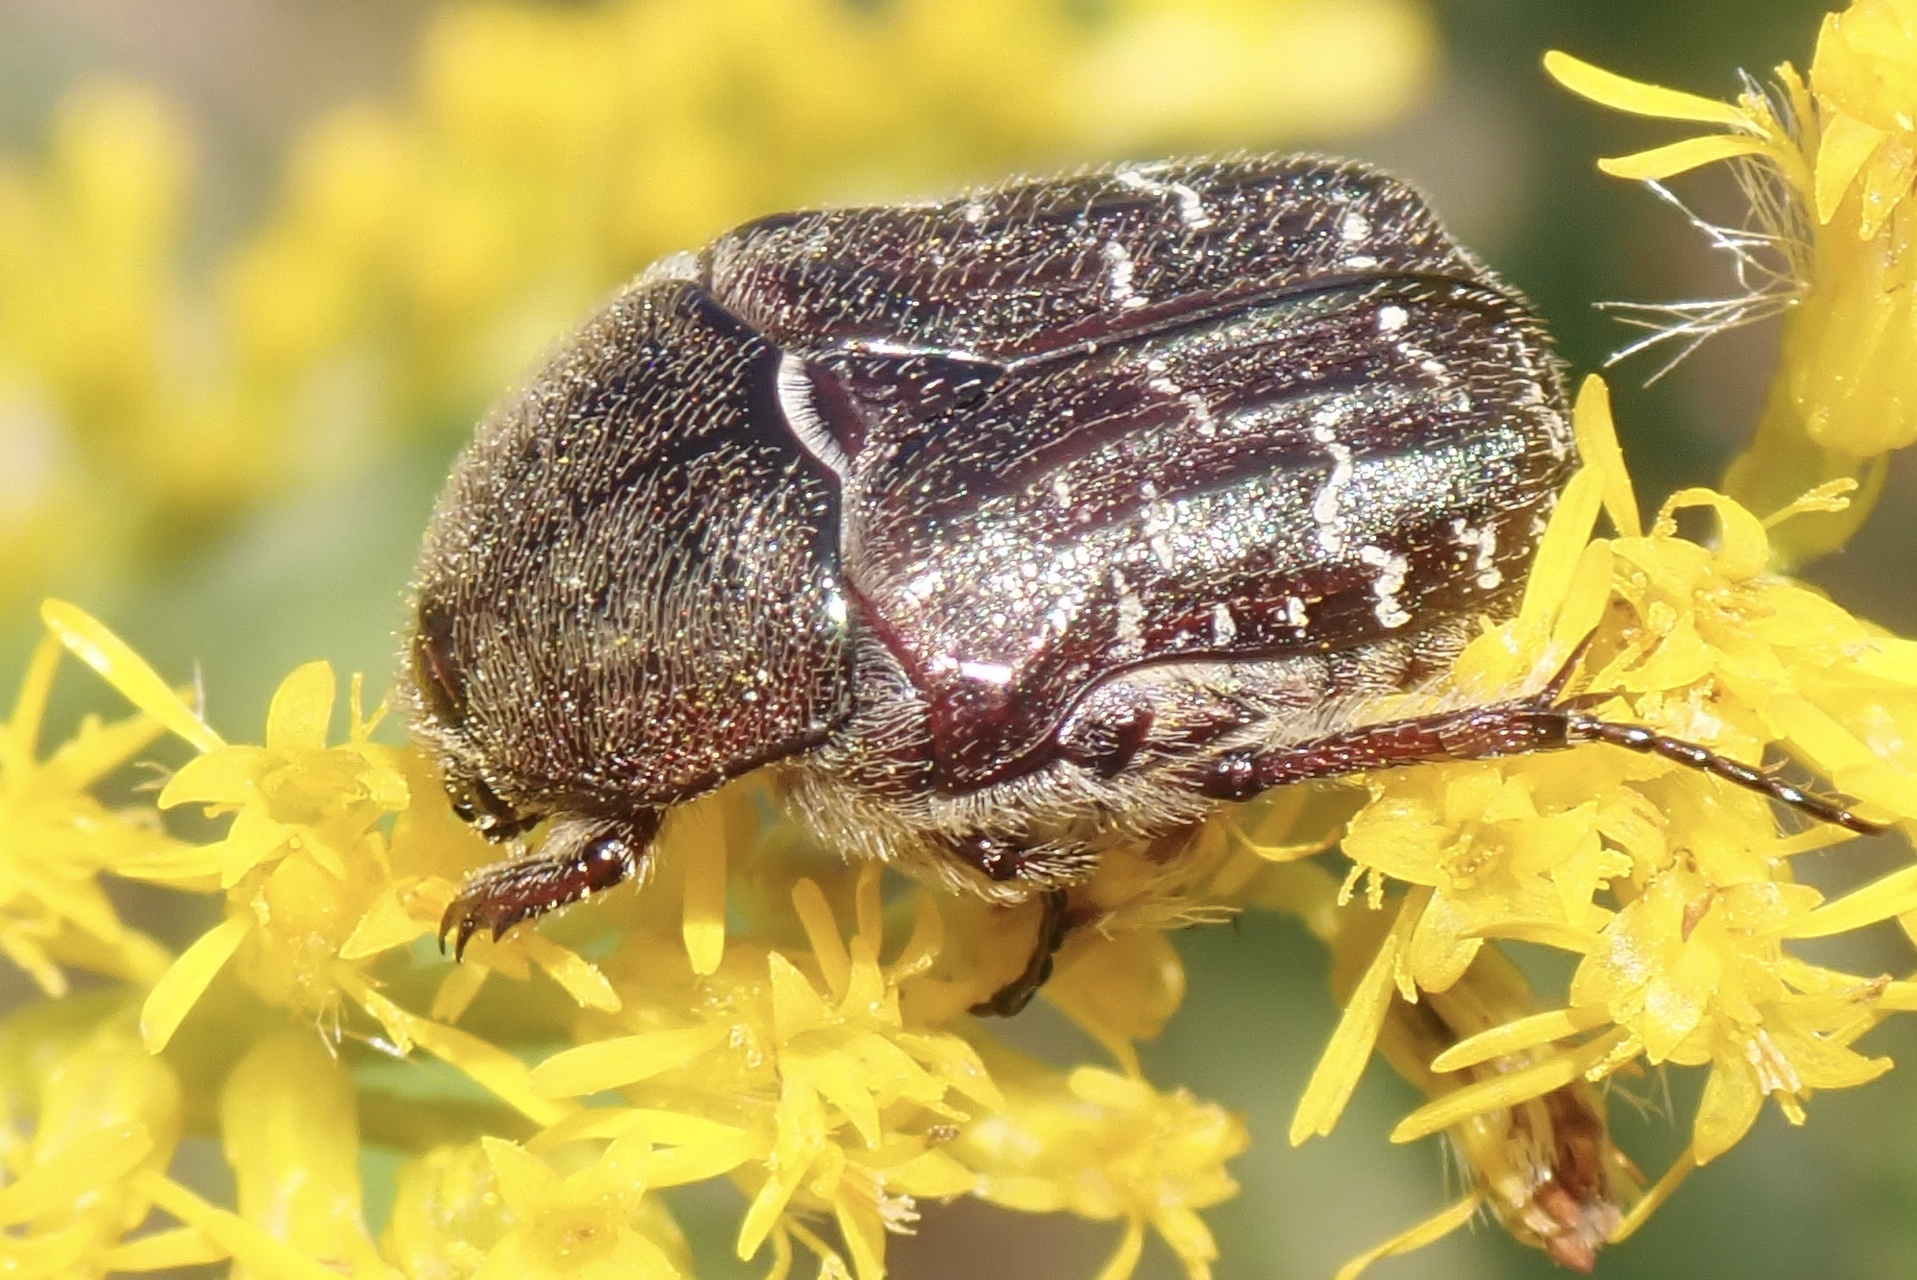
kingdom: Animalia
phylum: Arthropoda
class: Insecta
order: Coleoptera
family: Scarabaeidae
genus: Euphoria
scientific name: Euphoria sepulcralis
